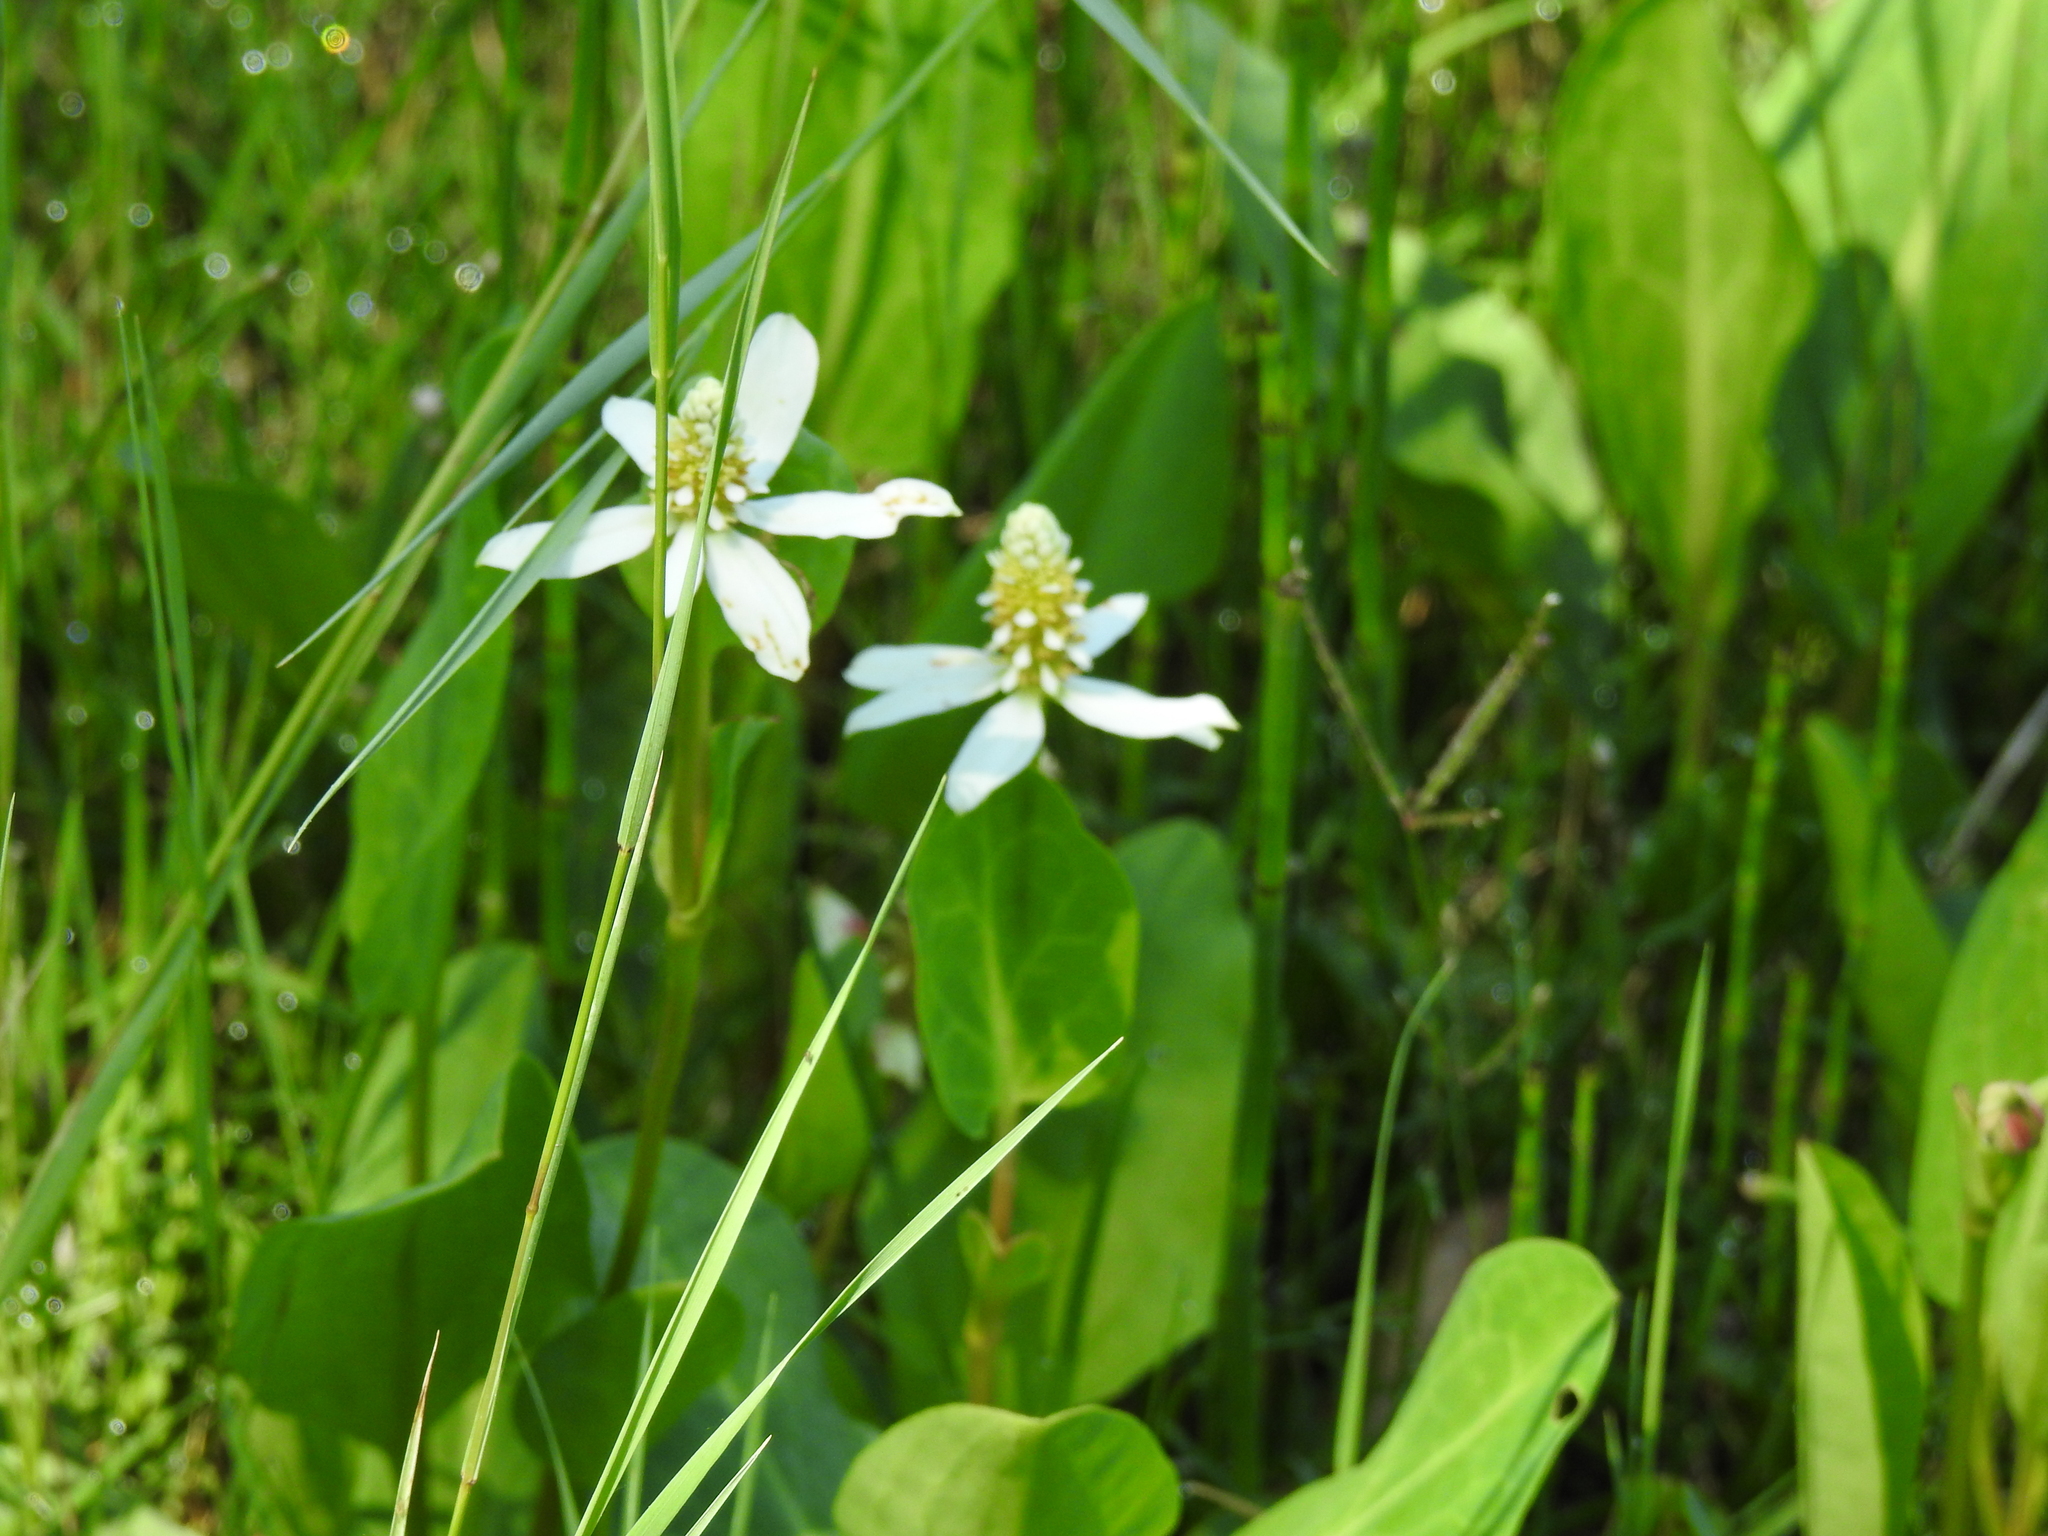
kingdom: Plantae
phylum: Tracheophyta
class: Magnoliopsida
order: Piperales
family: Saururaceae
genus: Anemopsis
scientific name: Anemopsis californica
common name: Apache-beads
